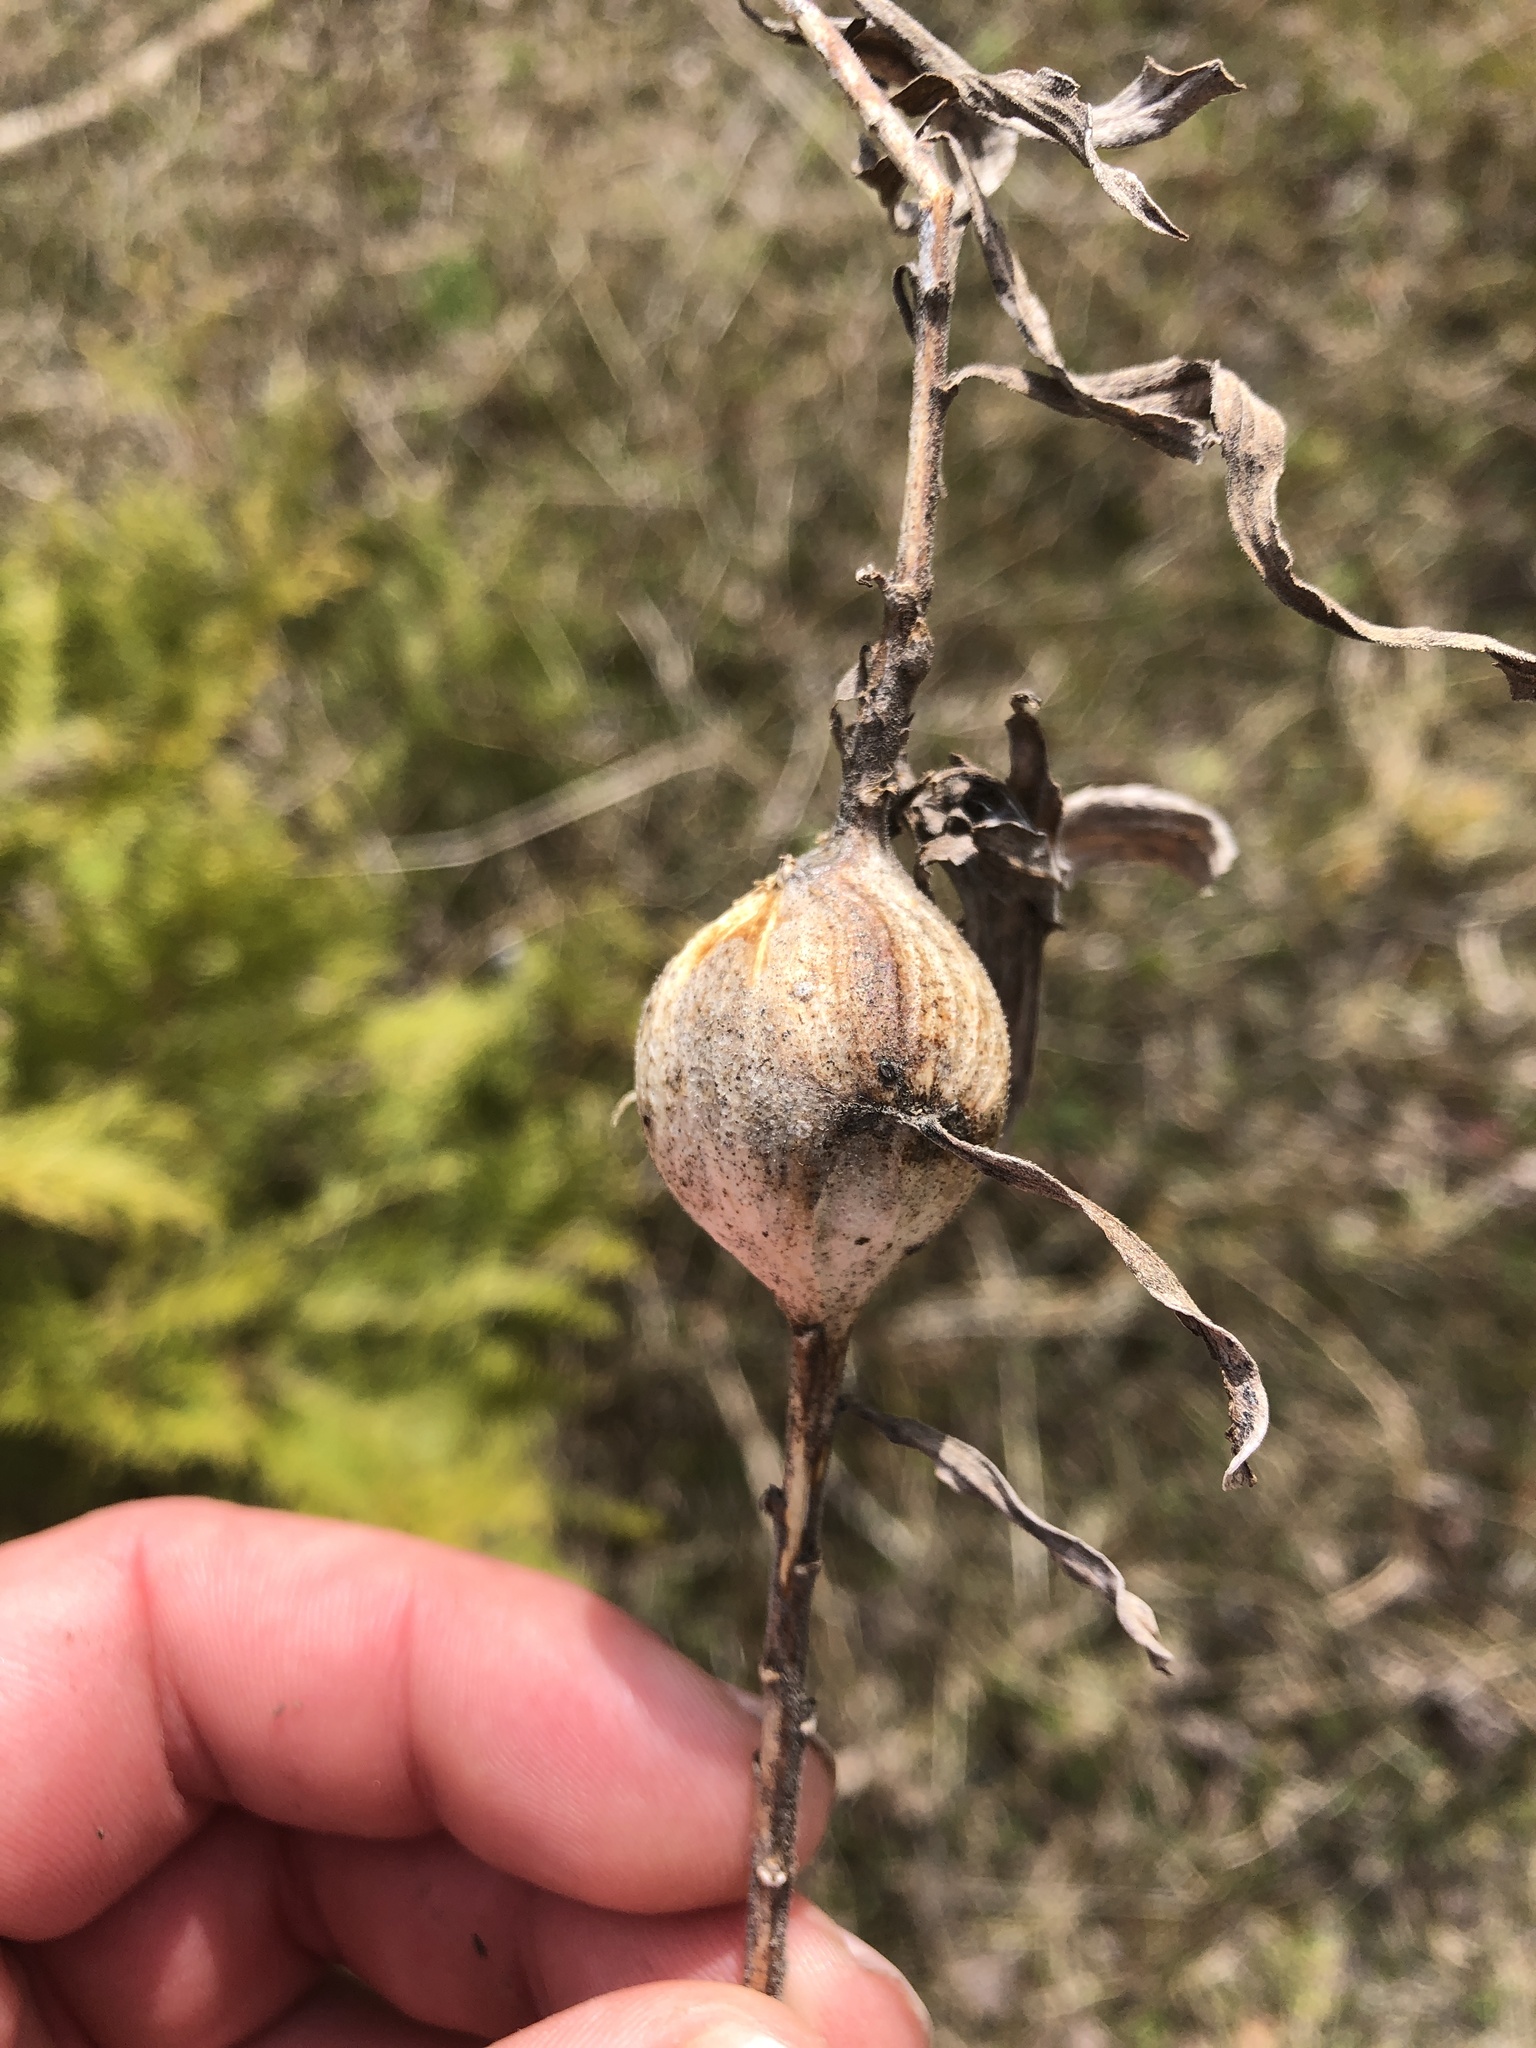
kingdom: Animalia
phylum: Arthropoda
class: Insecta
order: Diptera
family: Tephritidae
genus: Eurosta
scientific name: Eurosta solidaginis
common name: Goldenrod gall fly
